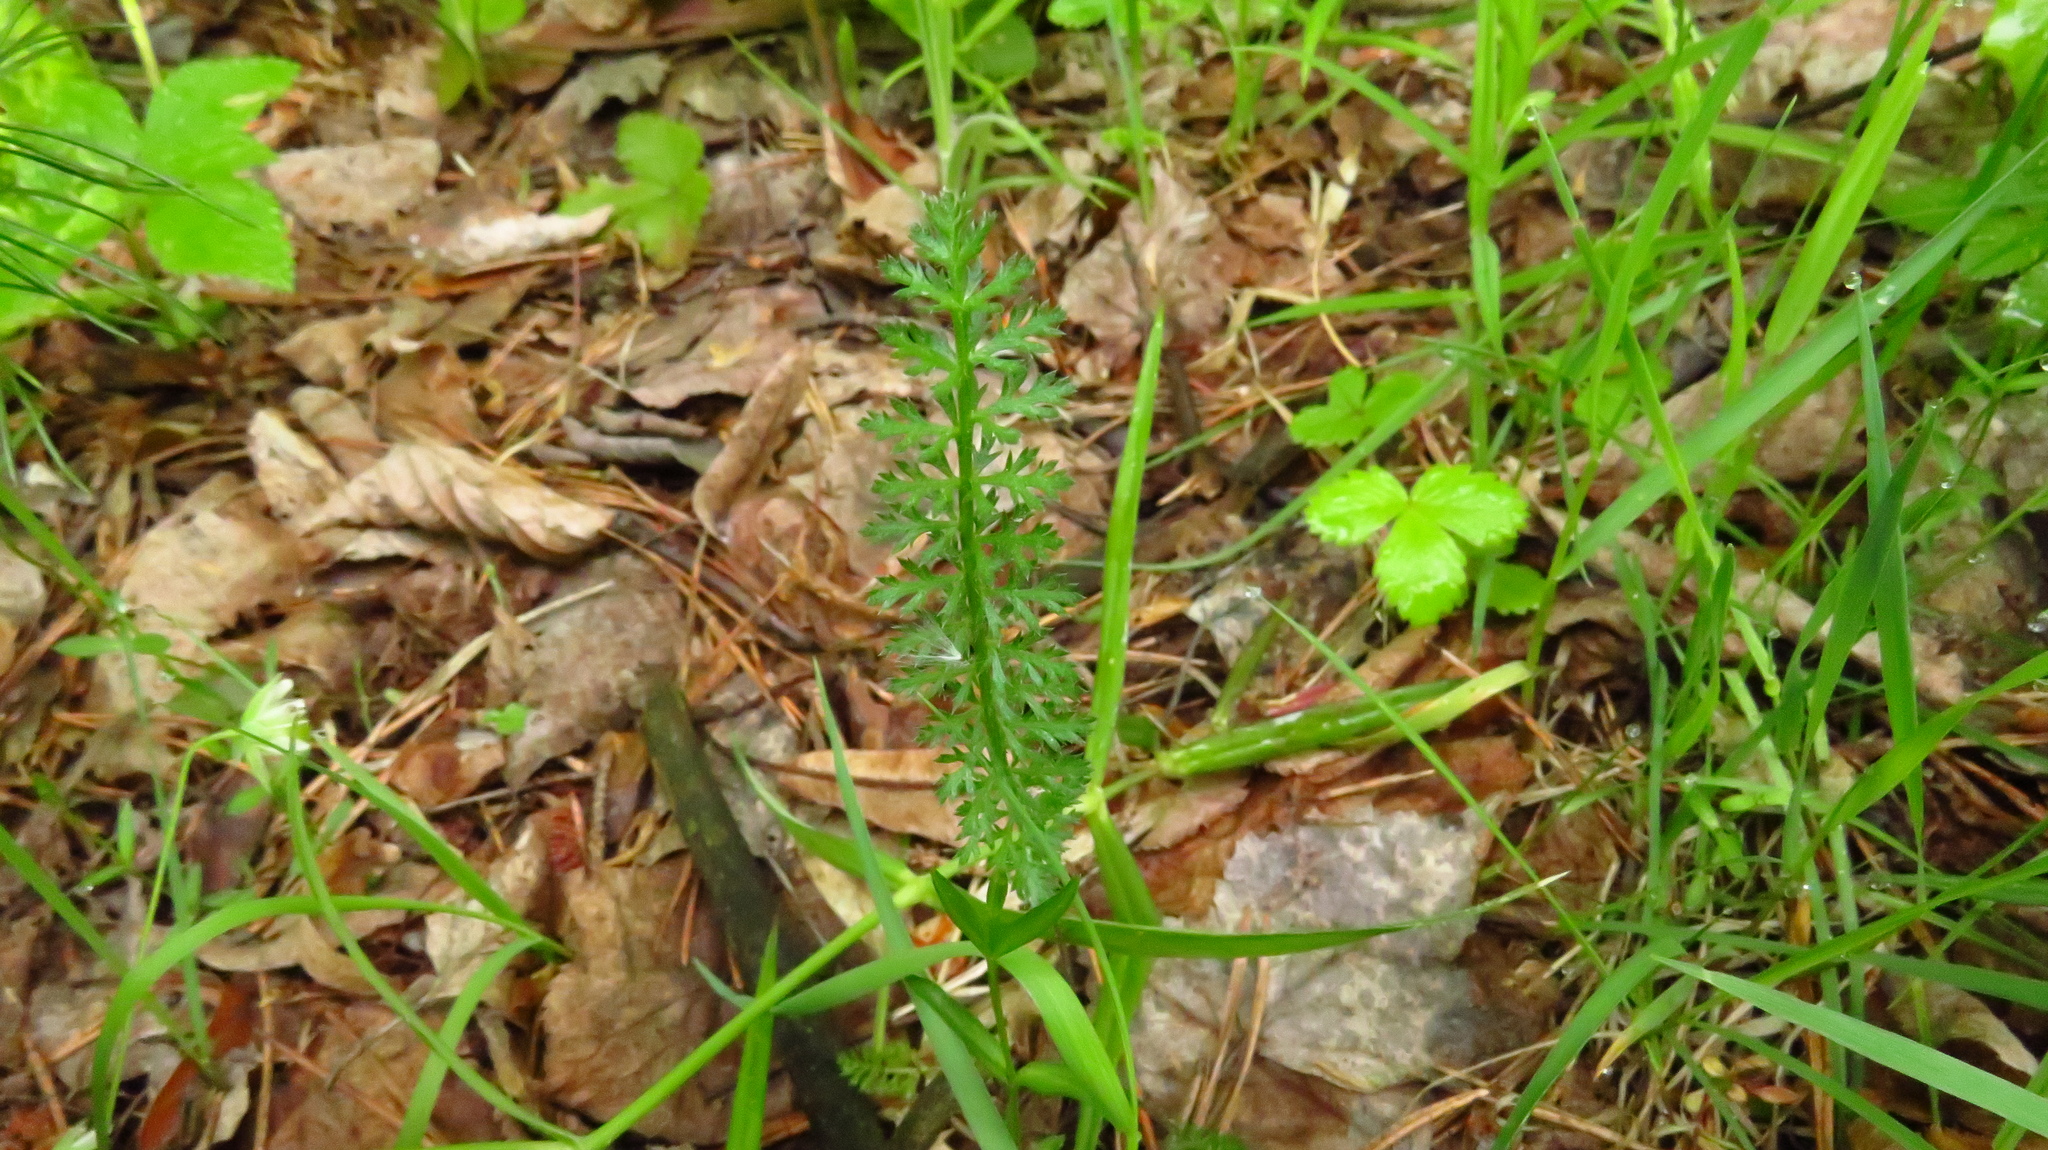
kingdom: Plantae
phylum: Tracheophyta
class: Magnoliopsida
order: Asterales
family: Asteraceae
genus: Achillea
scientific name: Achillea millefolium
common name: Yarrow
